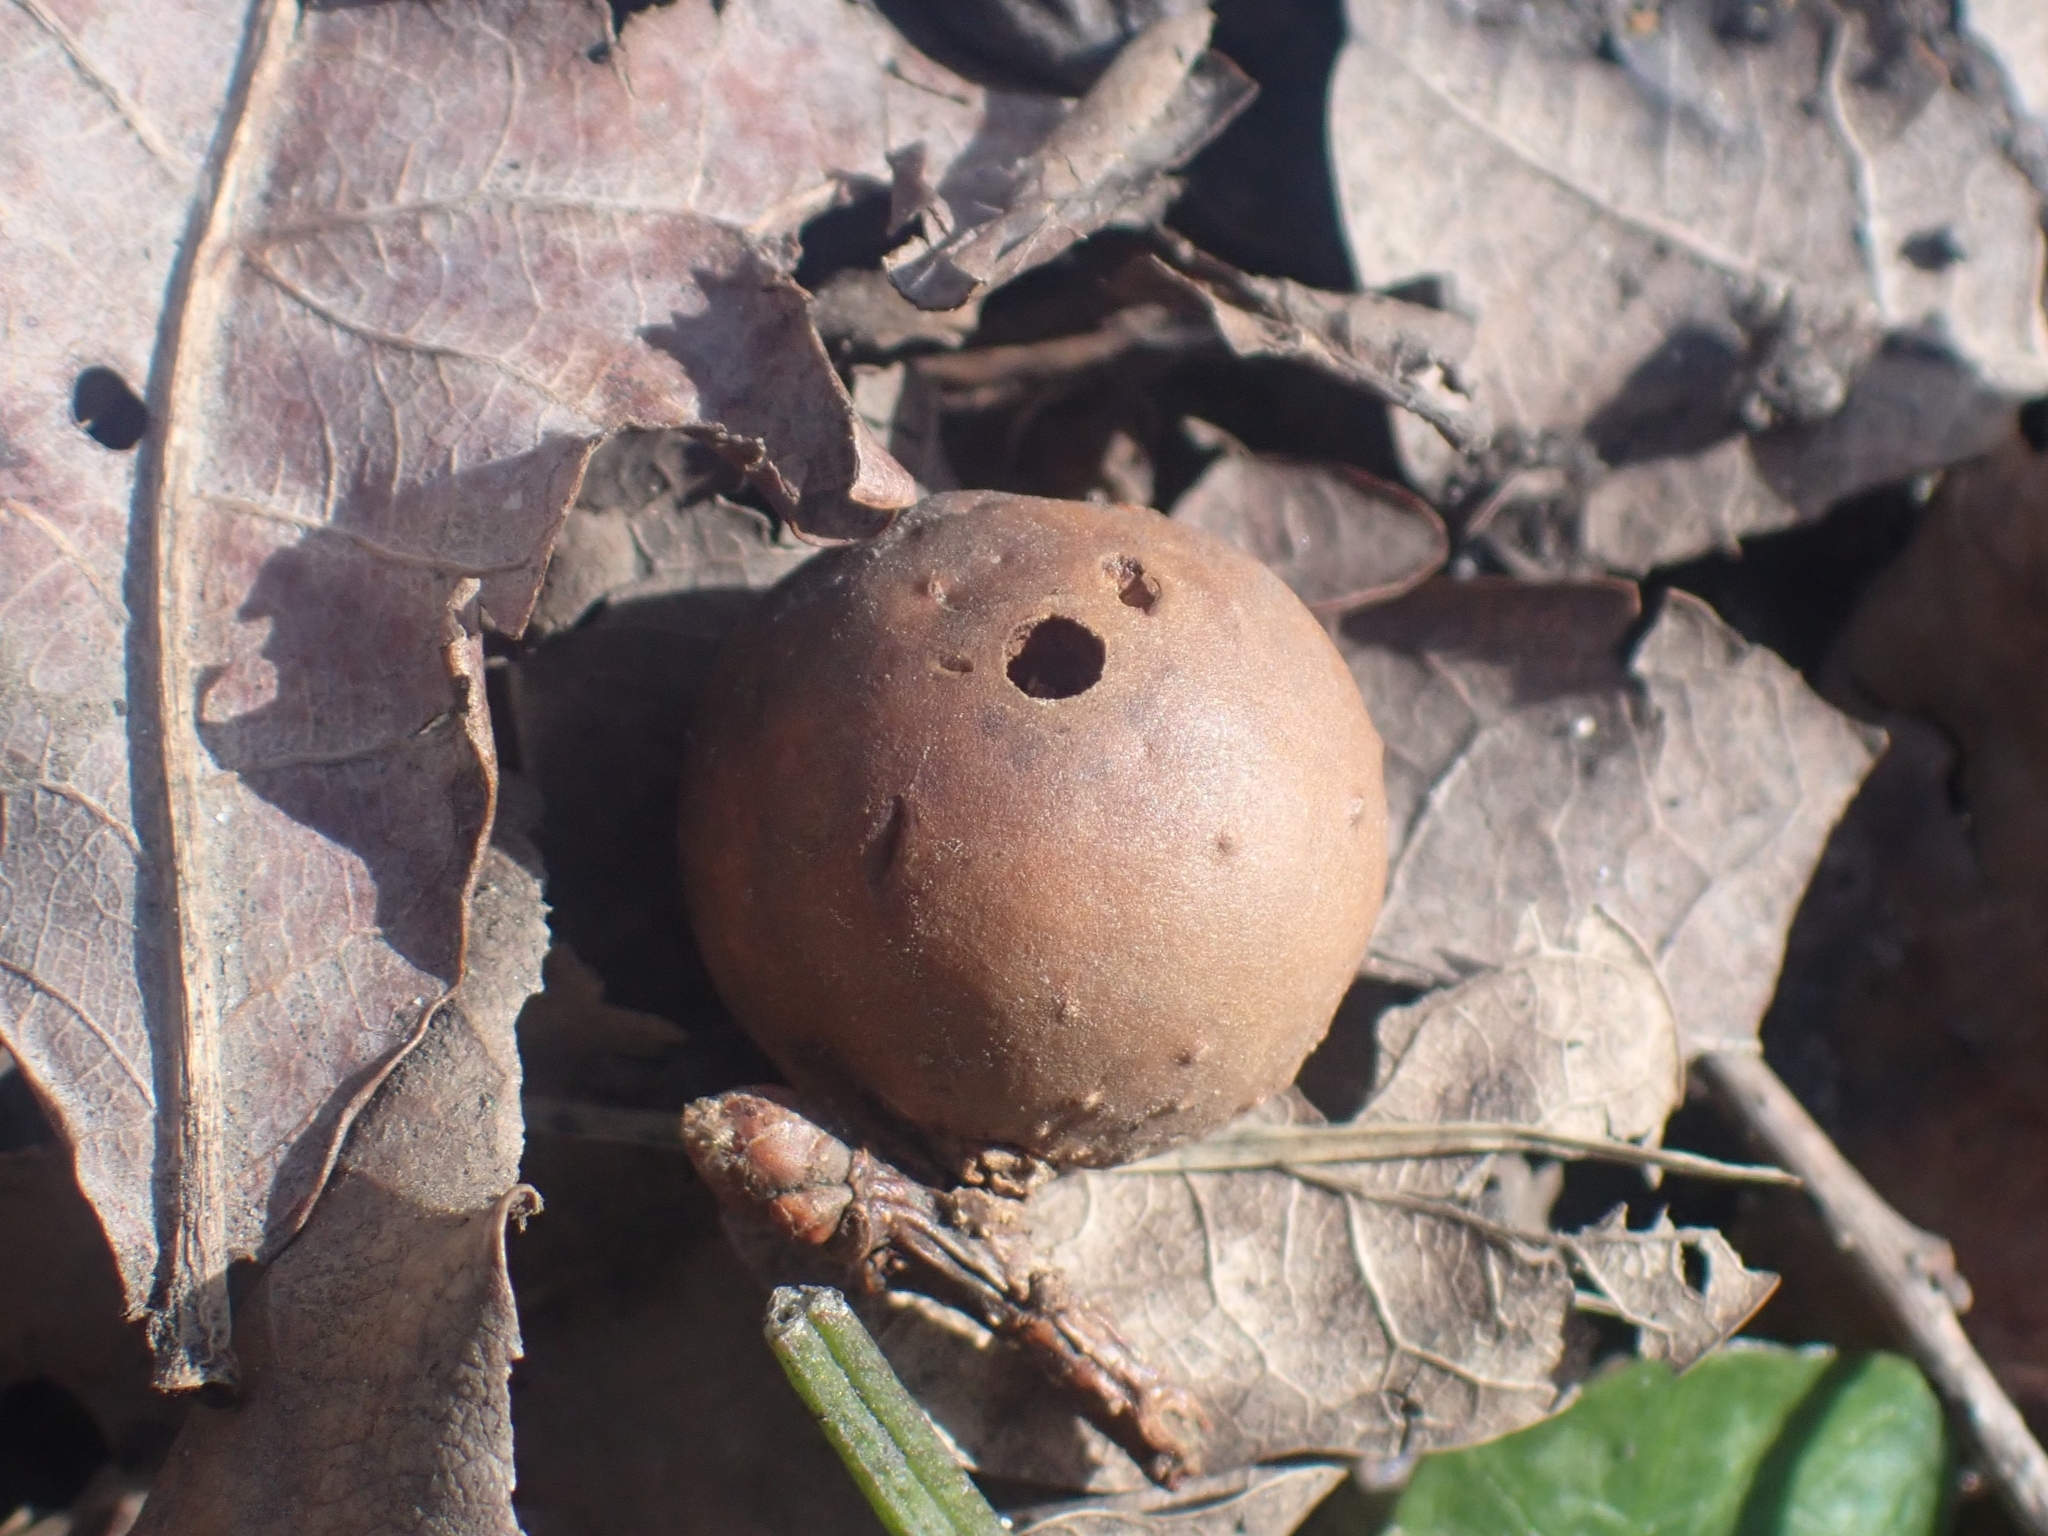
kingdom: Animalia
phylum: Arthropoda
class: Insecta
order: Hymenoptera
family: Cynipidae
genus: Andricus
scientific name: Andricus kollari
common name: Marble gall
